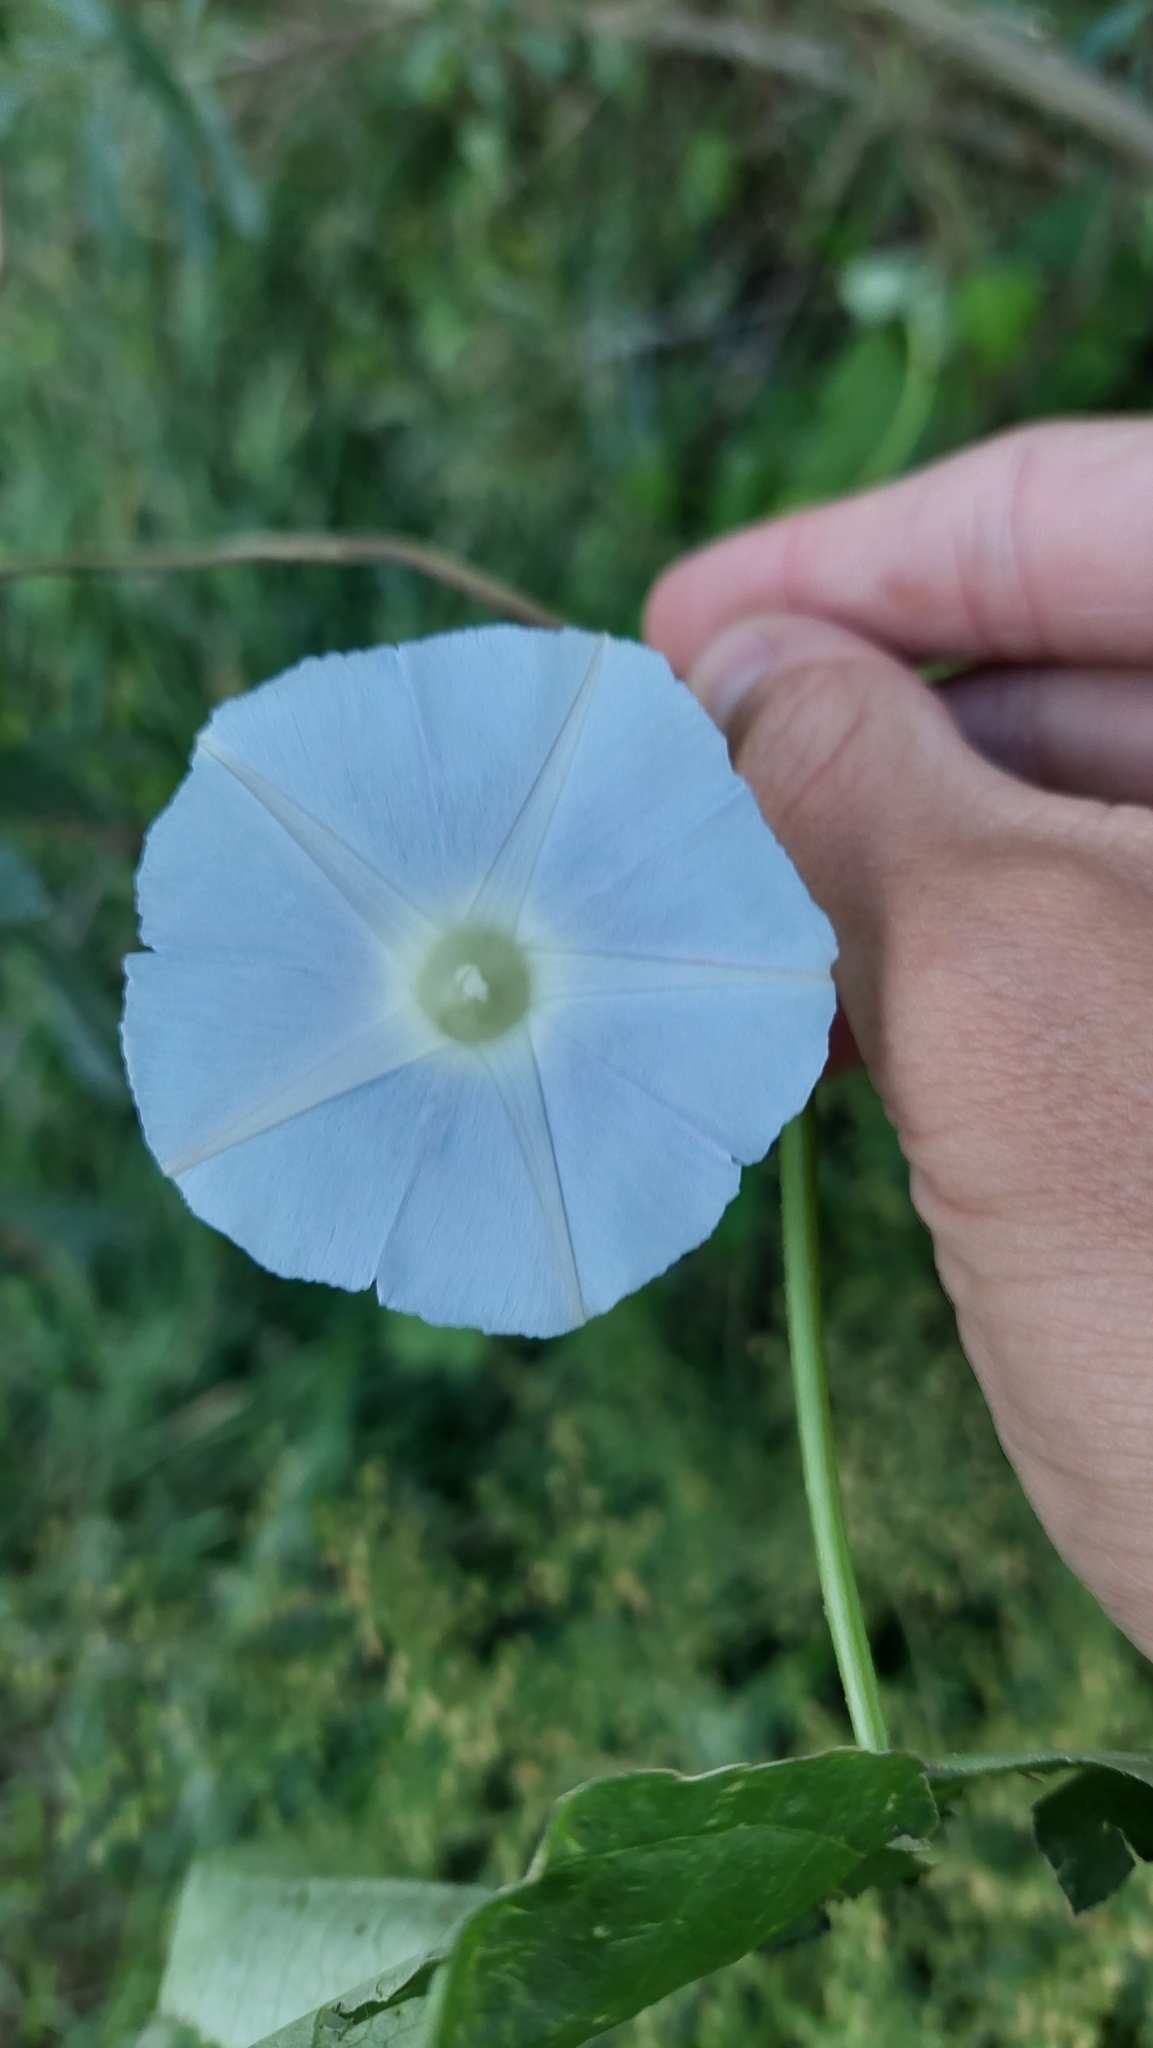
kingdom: Plantae
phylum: Tracheophyta
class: Magnoliopsida
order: Solanales
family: Convolvulaceae
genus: Ipomoea
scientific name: Ipomoea nil
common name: Japanese morning-glory
